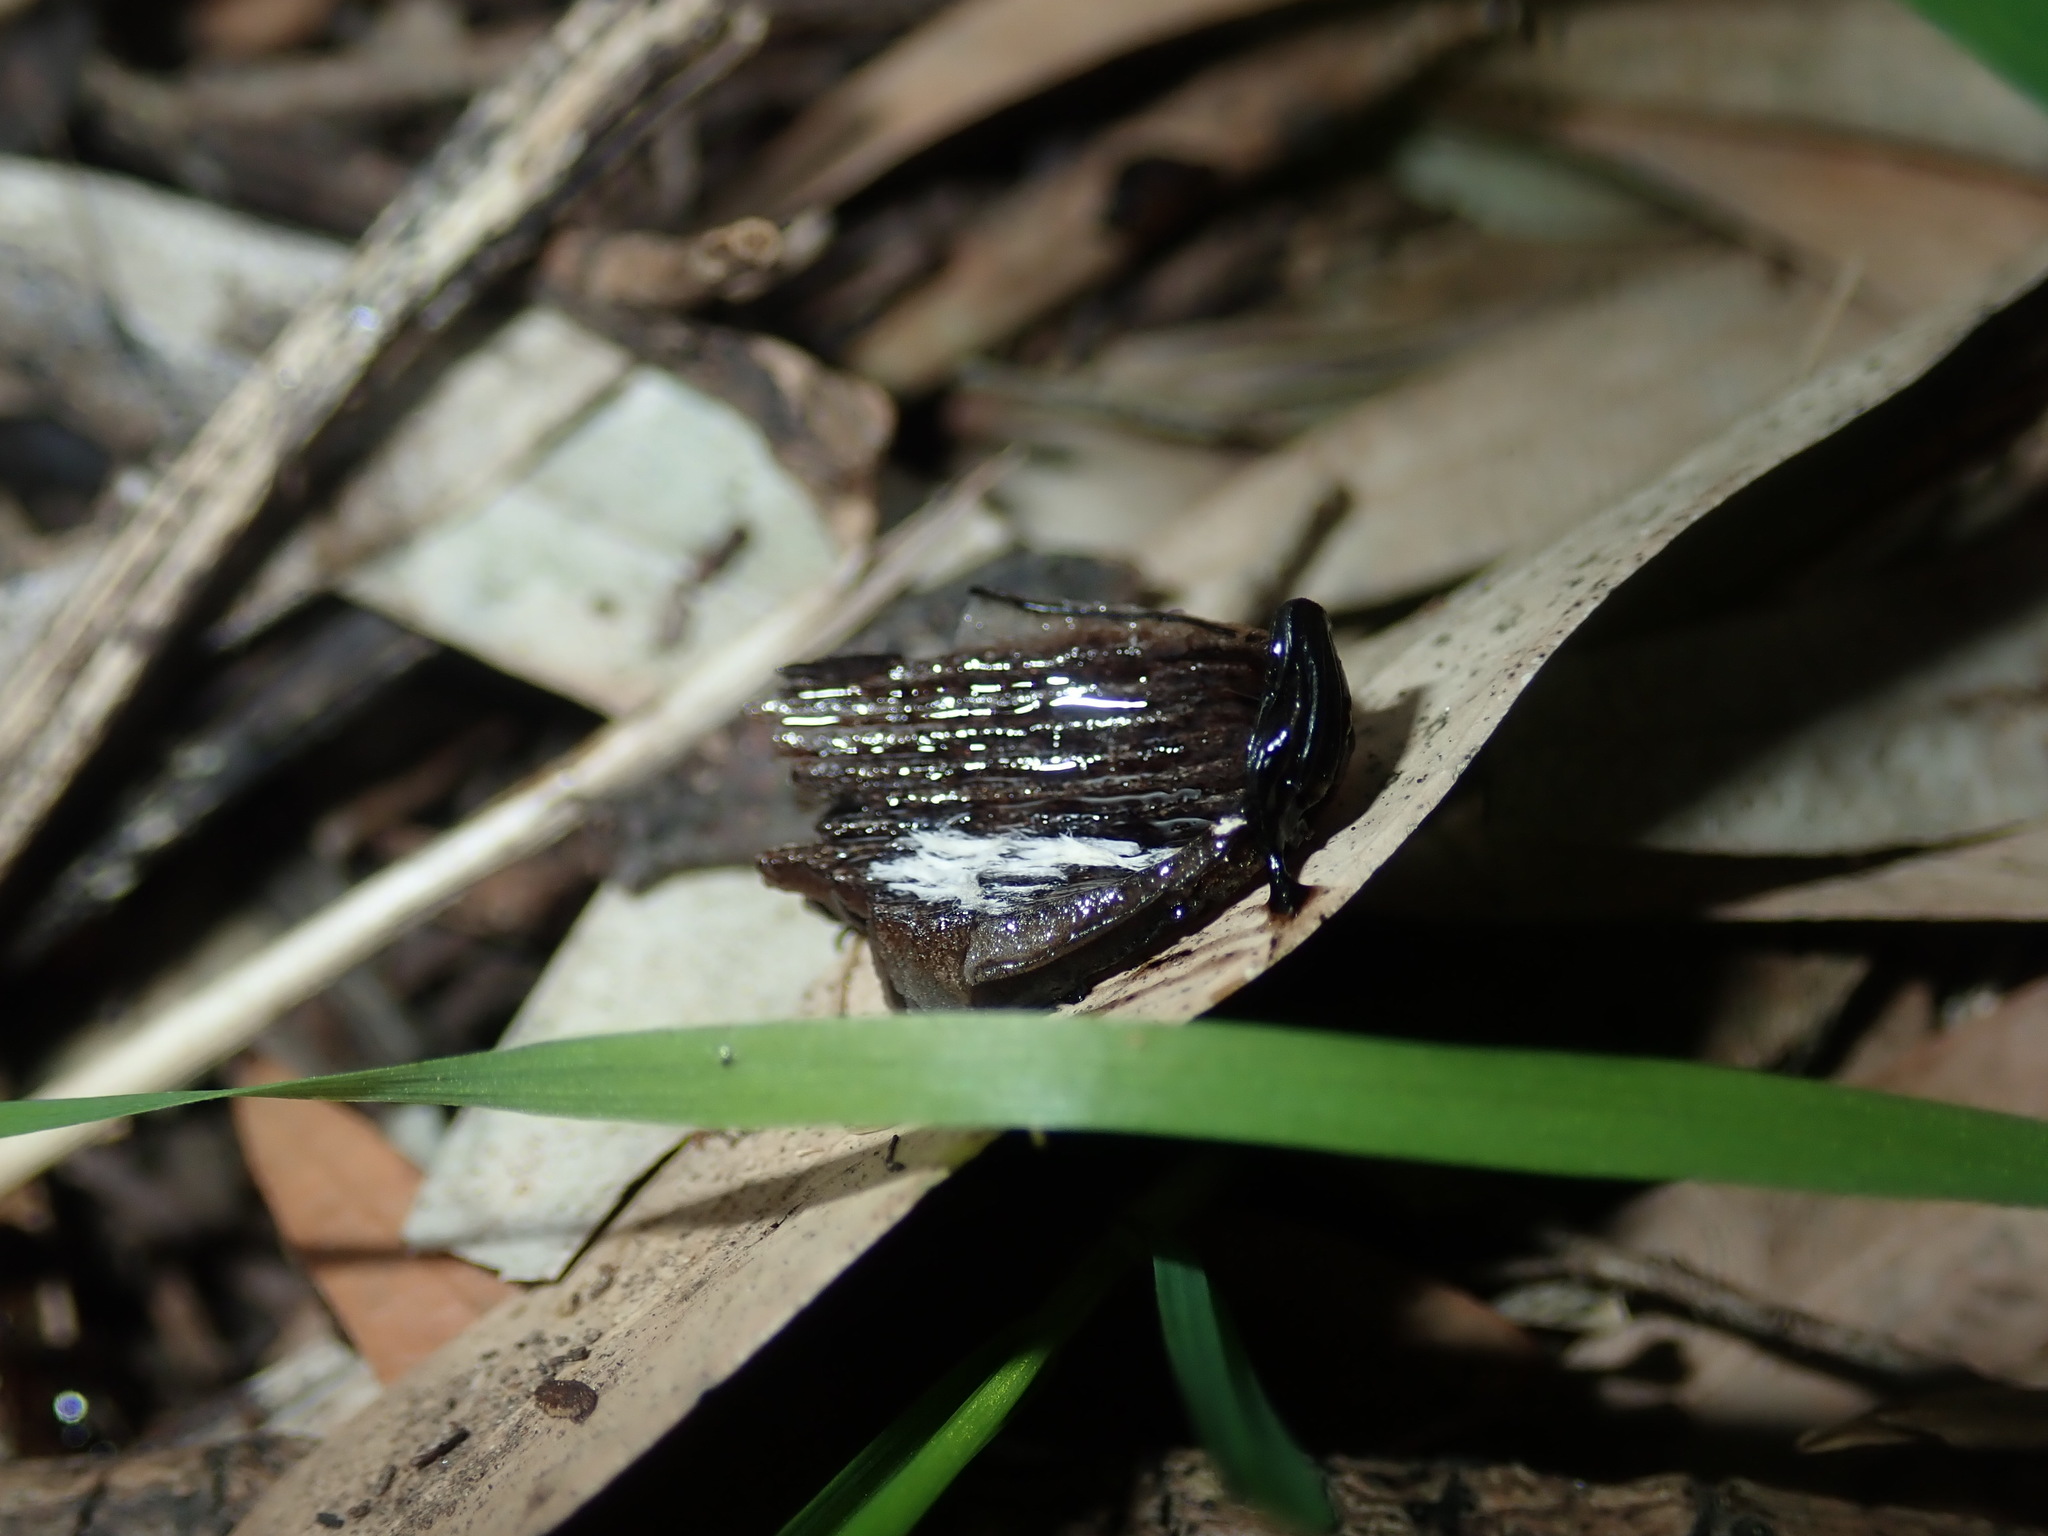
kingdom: Fungi
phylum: Basidiomycota
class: Agaricomycetes
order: Agaricales
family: Agaricaceae
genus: Coprinus
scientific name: Coprinus comatus
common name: Lawyer's wig
